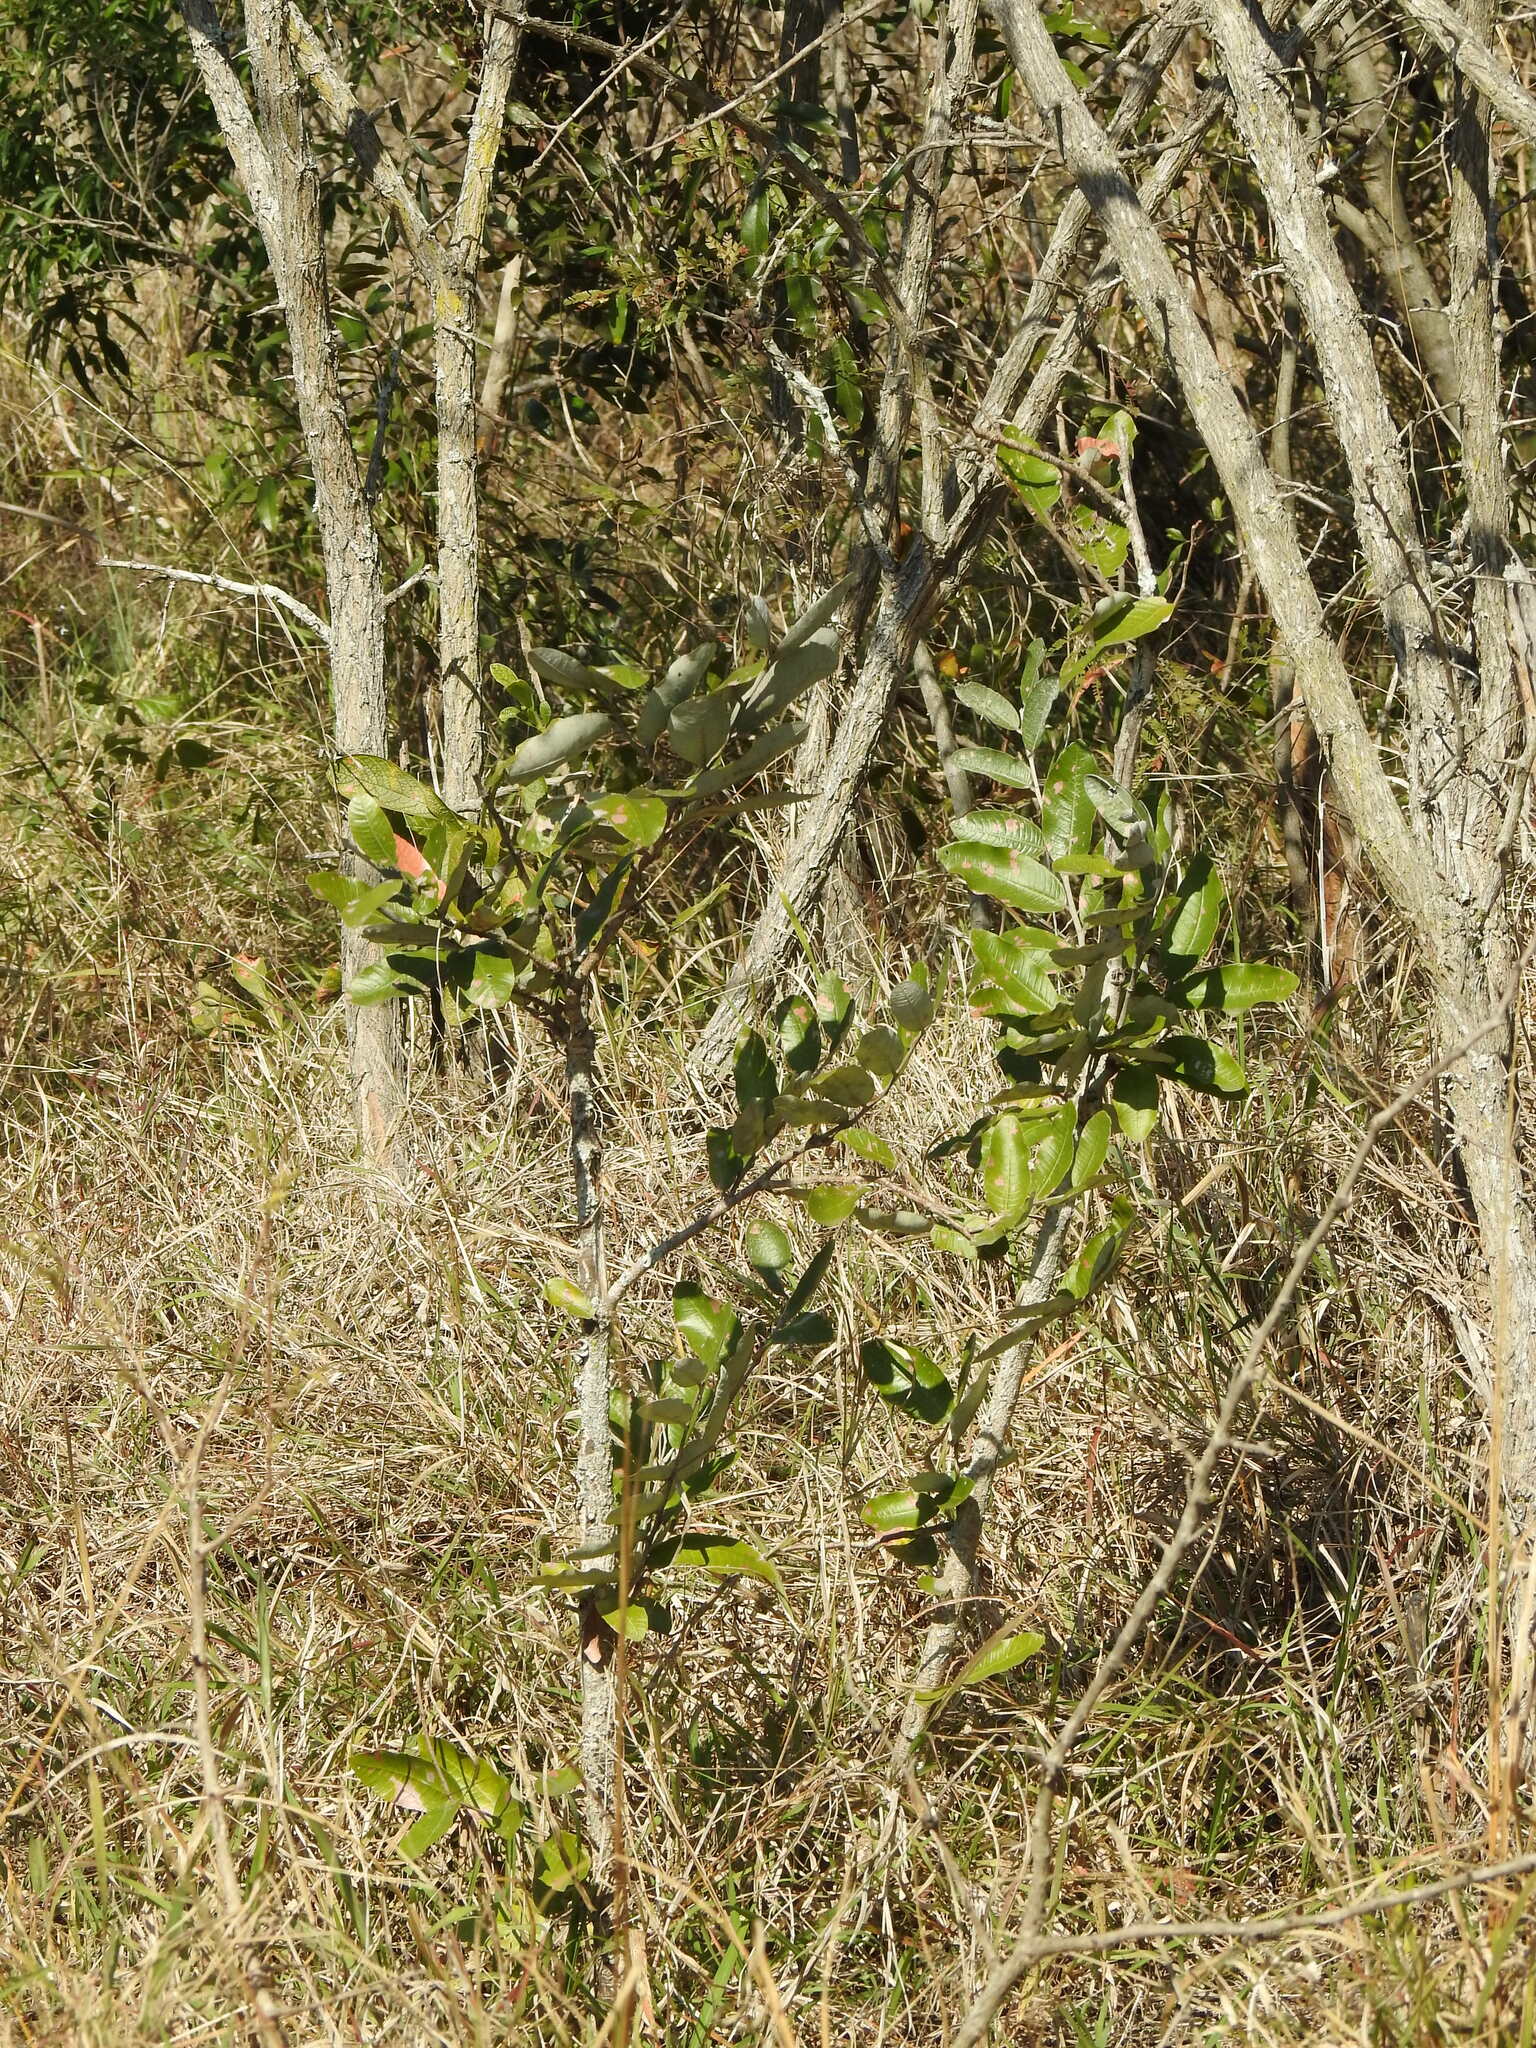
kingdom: Plantae
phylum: Tracheophyta
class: Magnoliopsida
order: Malpighiales
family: Chrysobalanaceae
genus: Parinari
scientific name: Parinari curatellifolia
